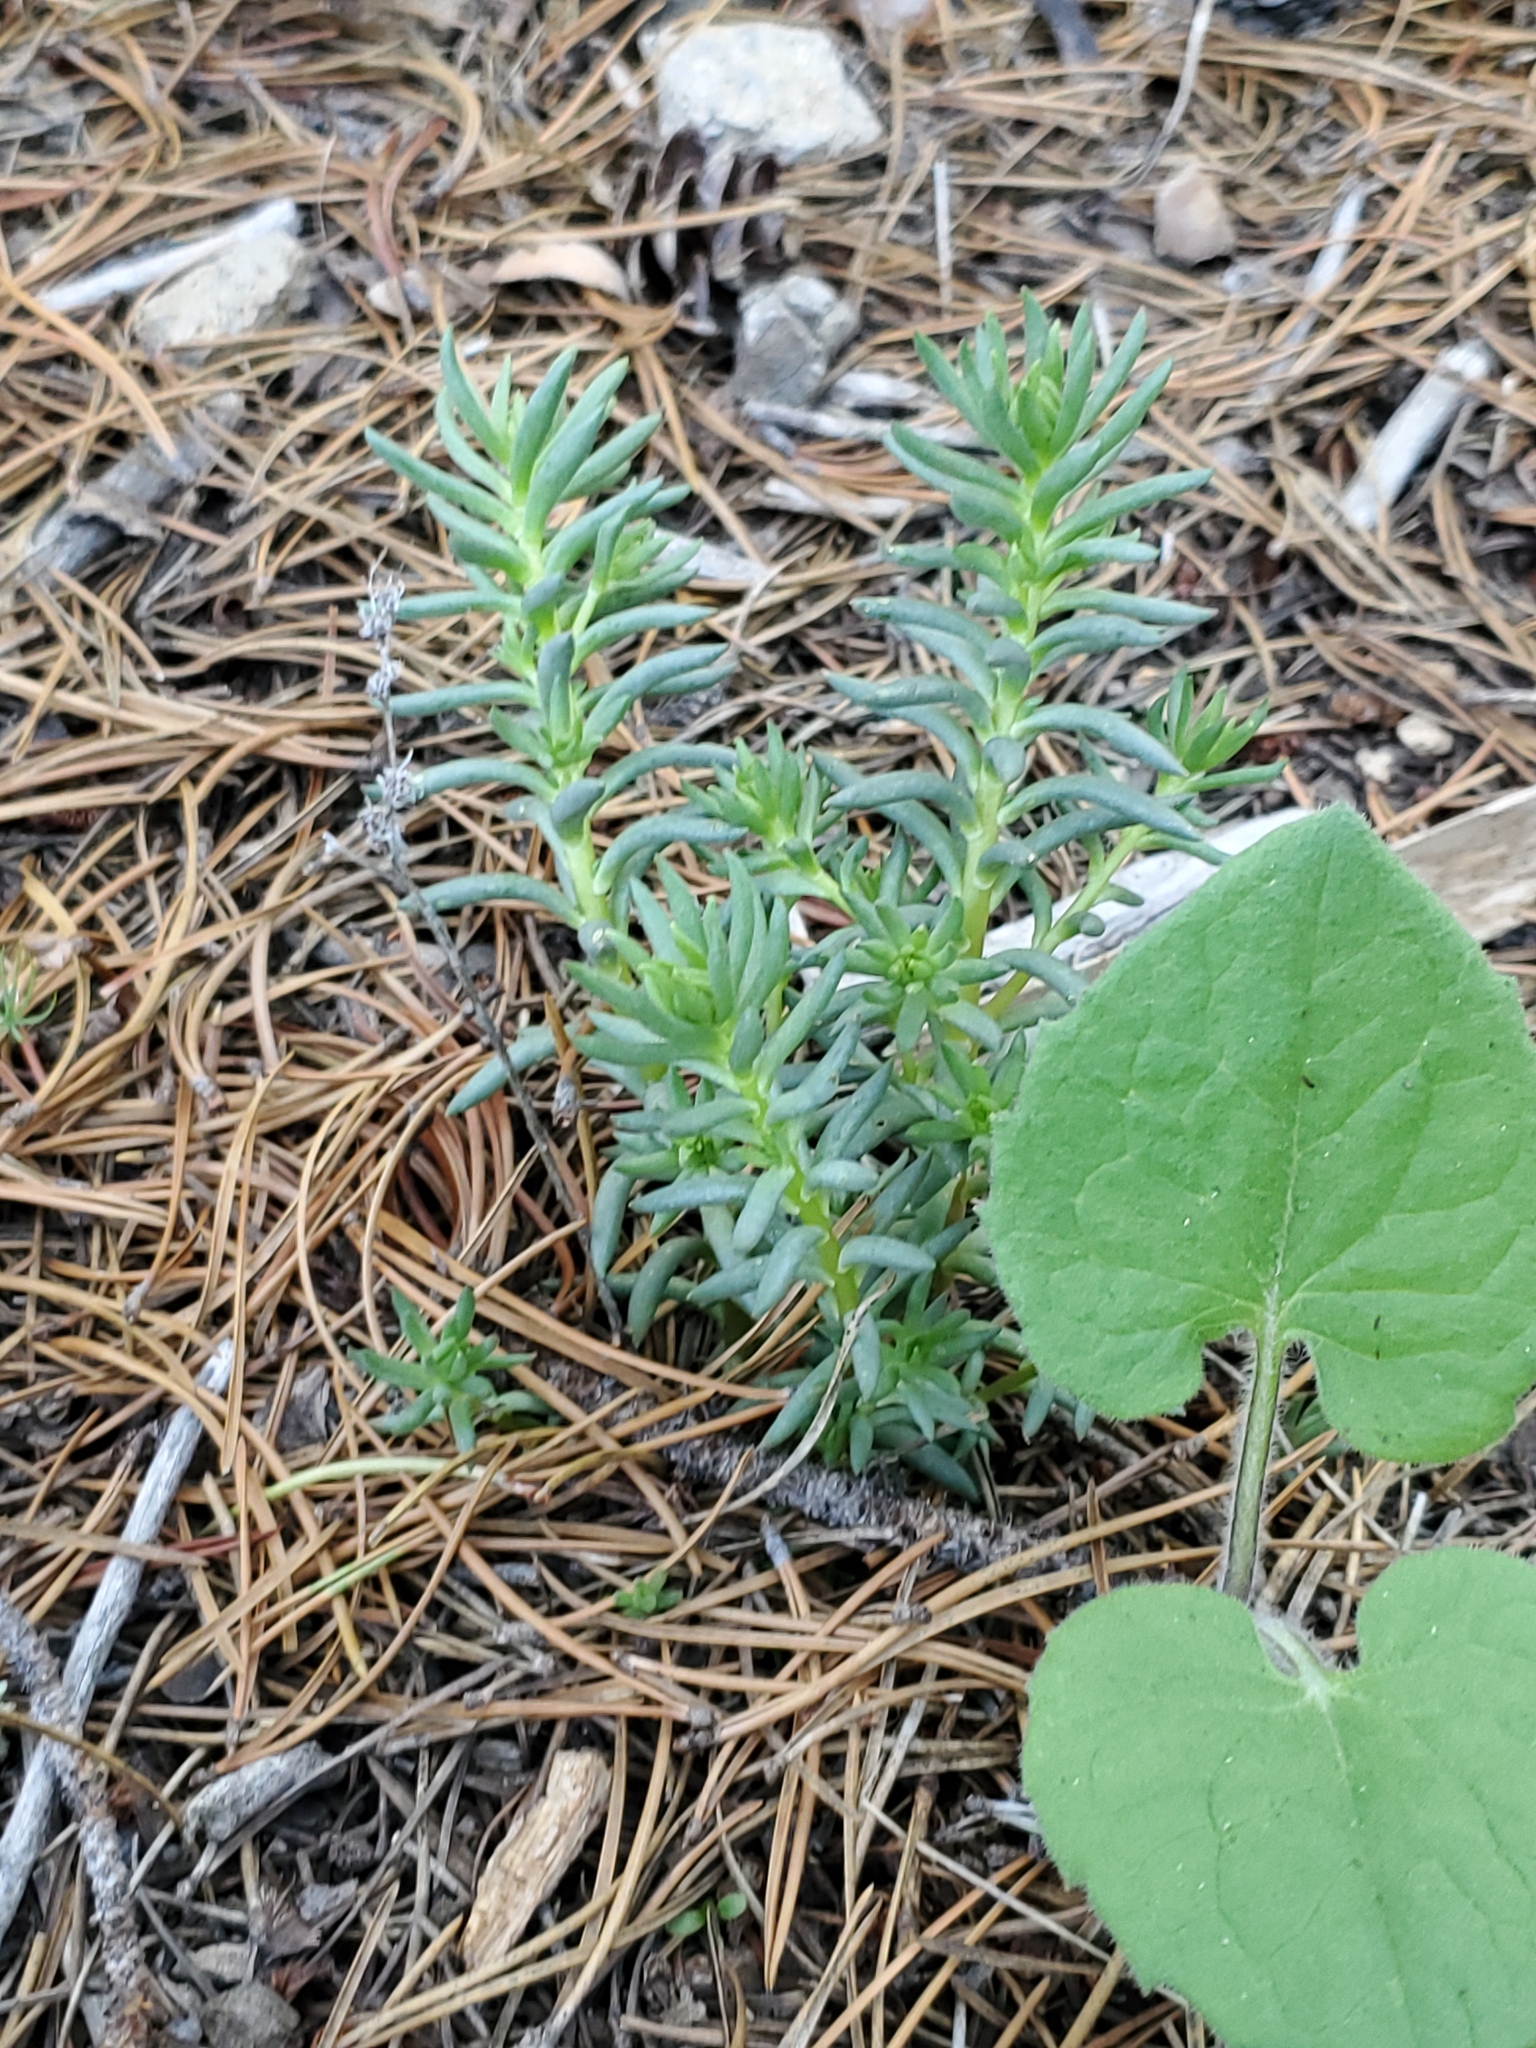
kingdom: Plantae
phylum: Tracheophyta
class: Magnoliopsida
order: Saxifragales
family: Crassulaceae
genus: Sedum
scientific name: Sedum lanceolatum
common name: Common stonecrop
